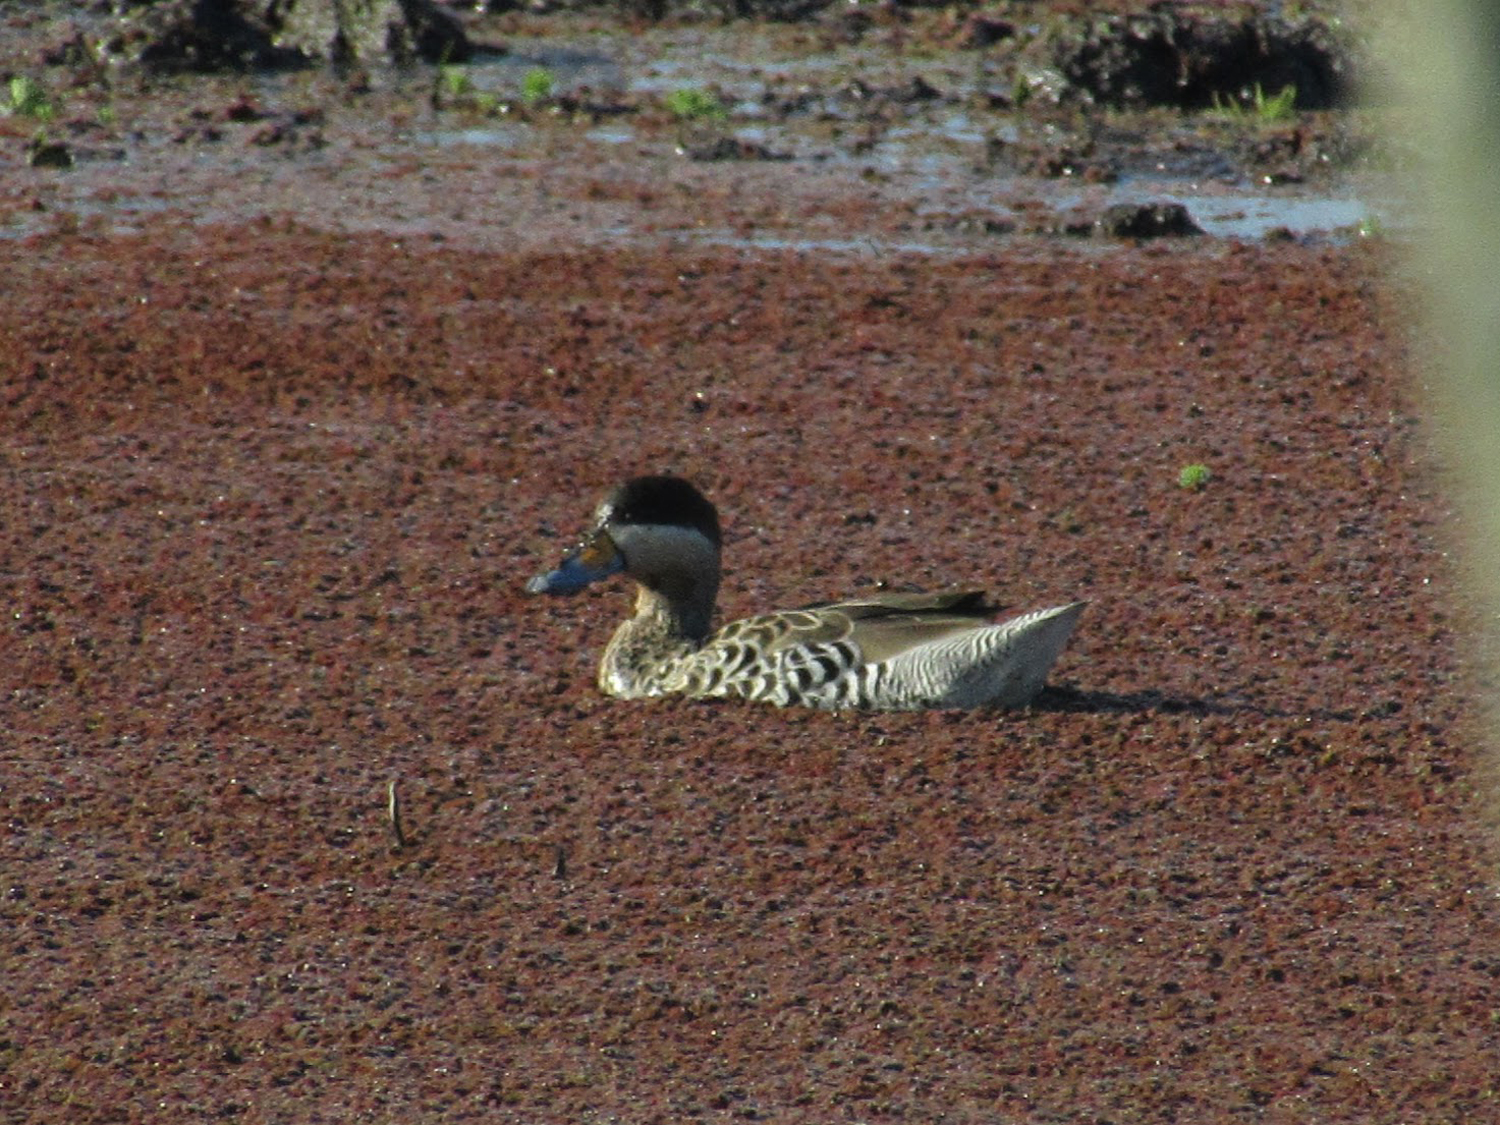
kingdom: Animalia
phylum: Chordata
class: Aves
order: Anseriformes
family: Anatidae
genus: Spatula
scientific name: Spatula versicolor
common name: Silver teal
